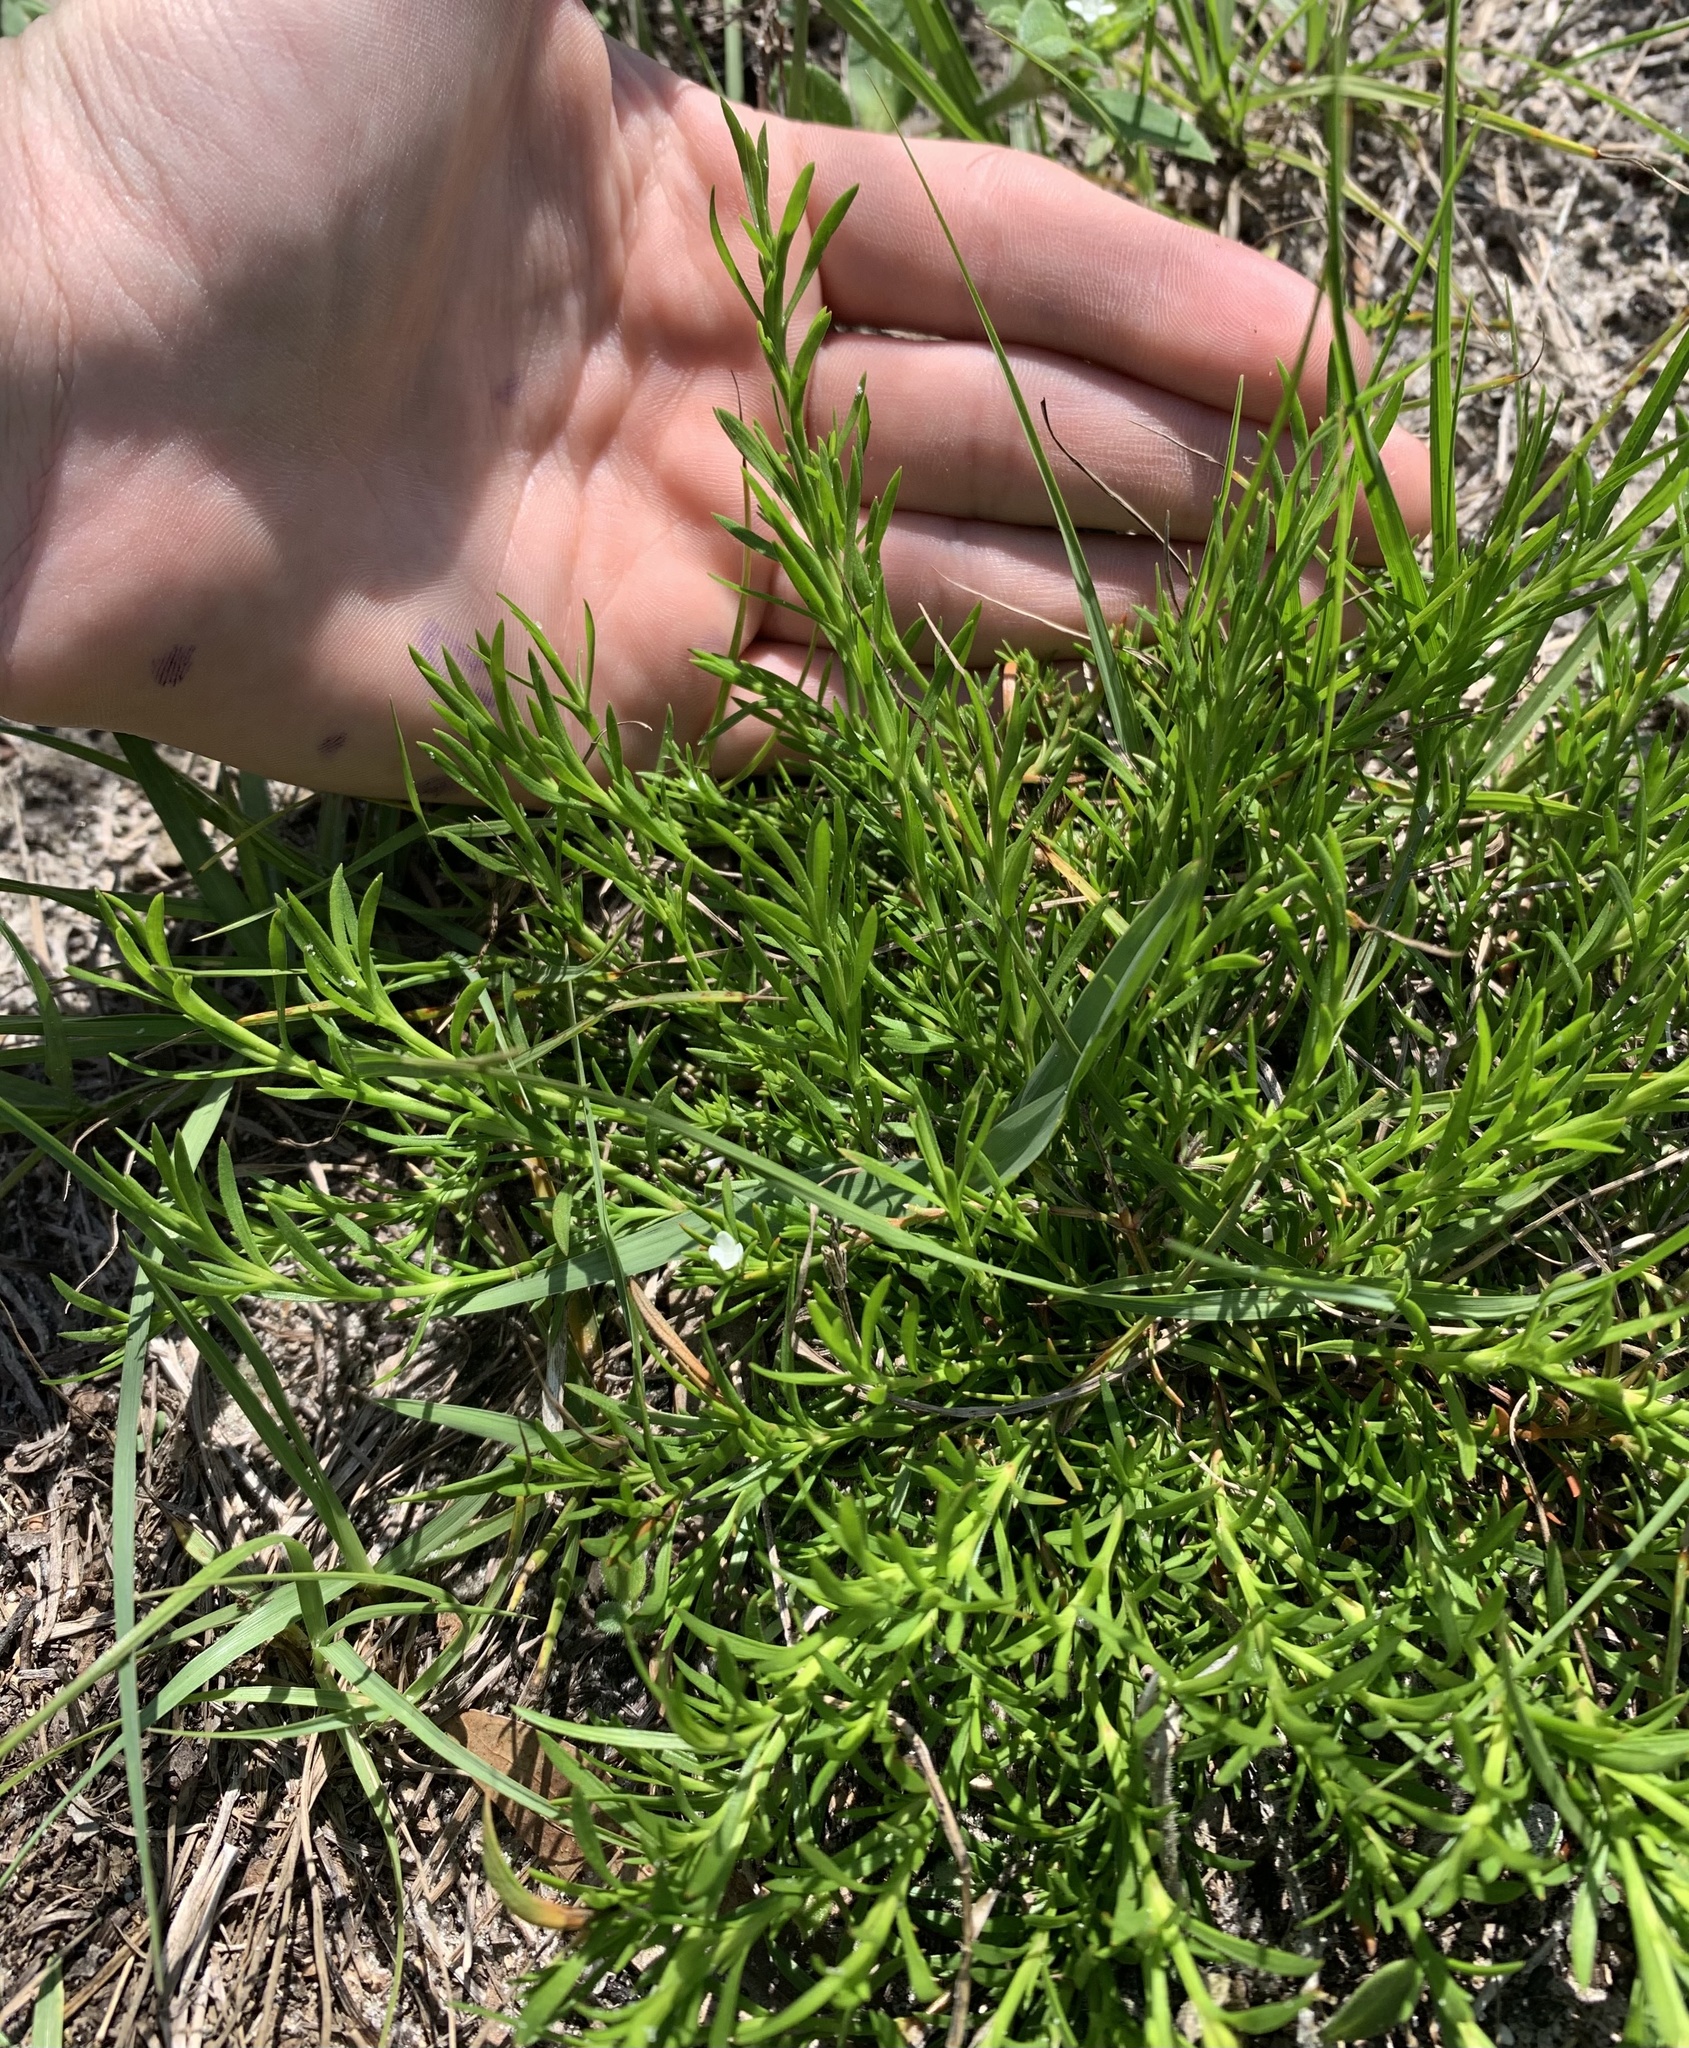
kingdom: Plantae
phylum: Tracheophyta
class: Magnoliopsida
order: Lamiales
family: Tetrachondraceae
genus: Polypremum
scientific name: Polypremum procumbens
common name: Juniper-leaf
